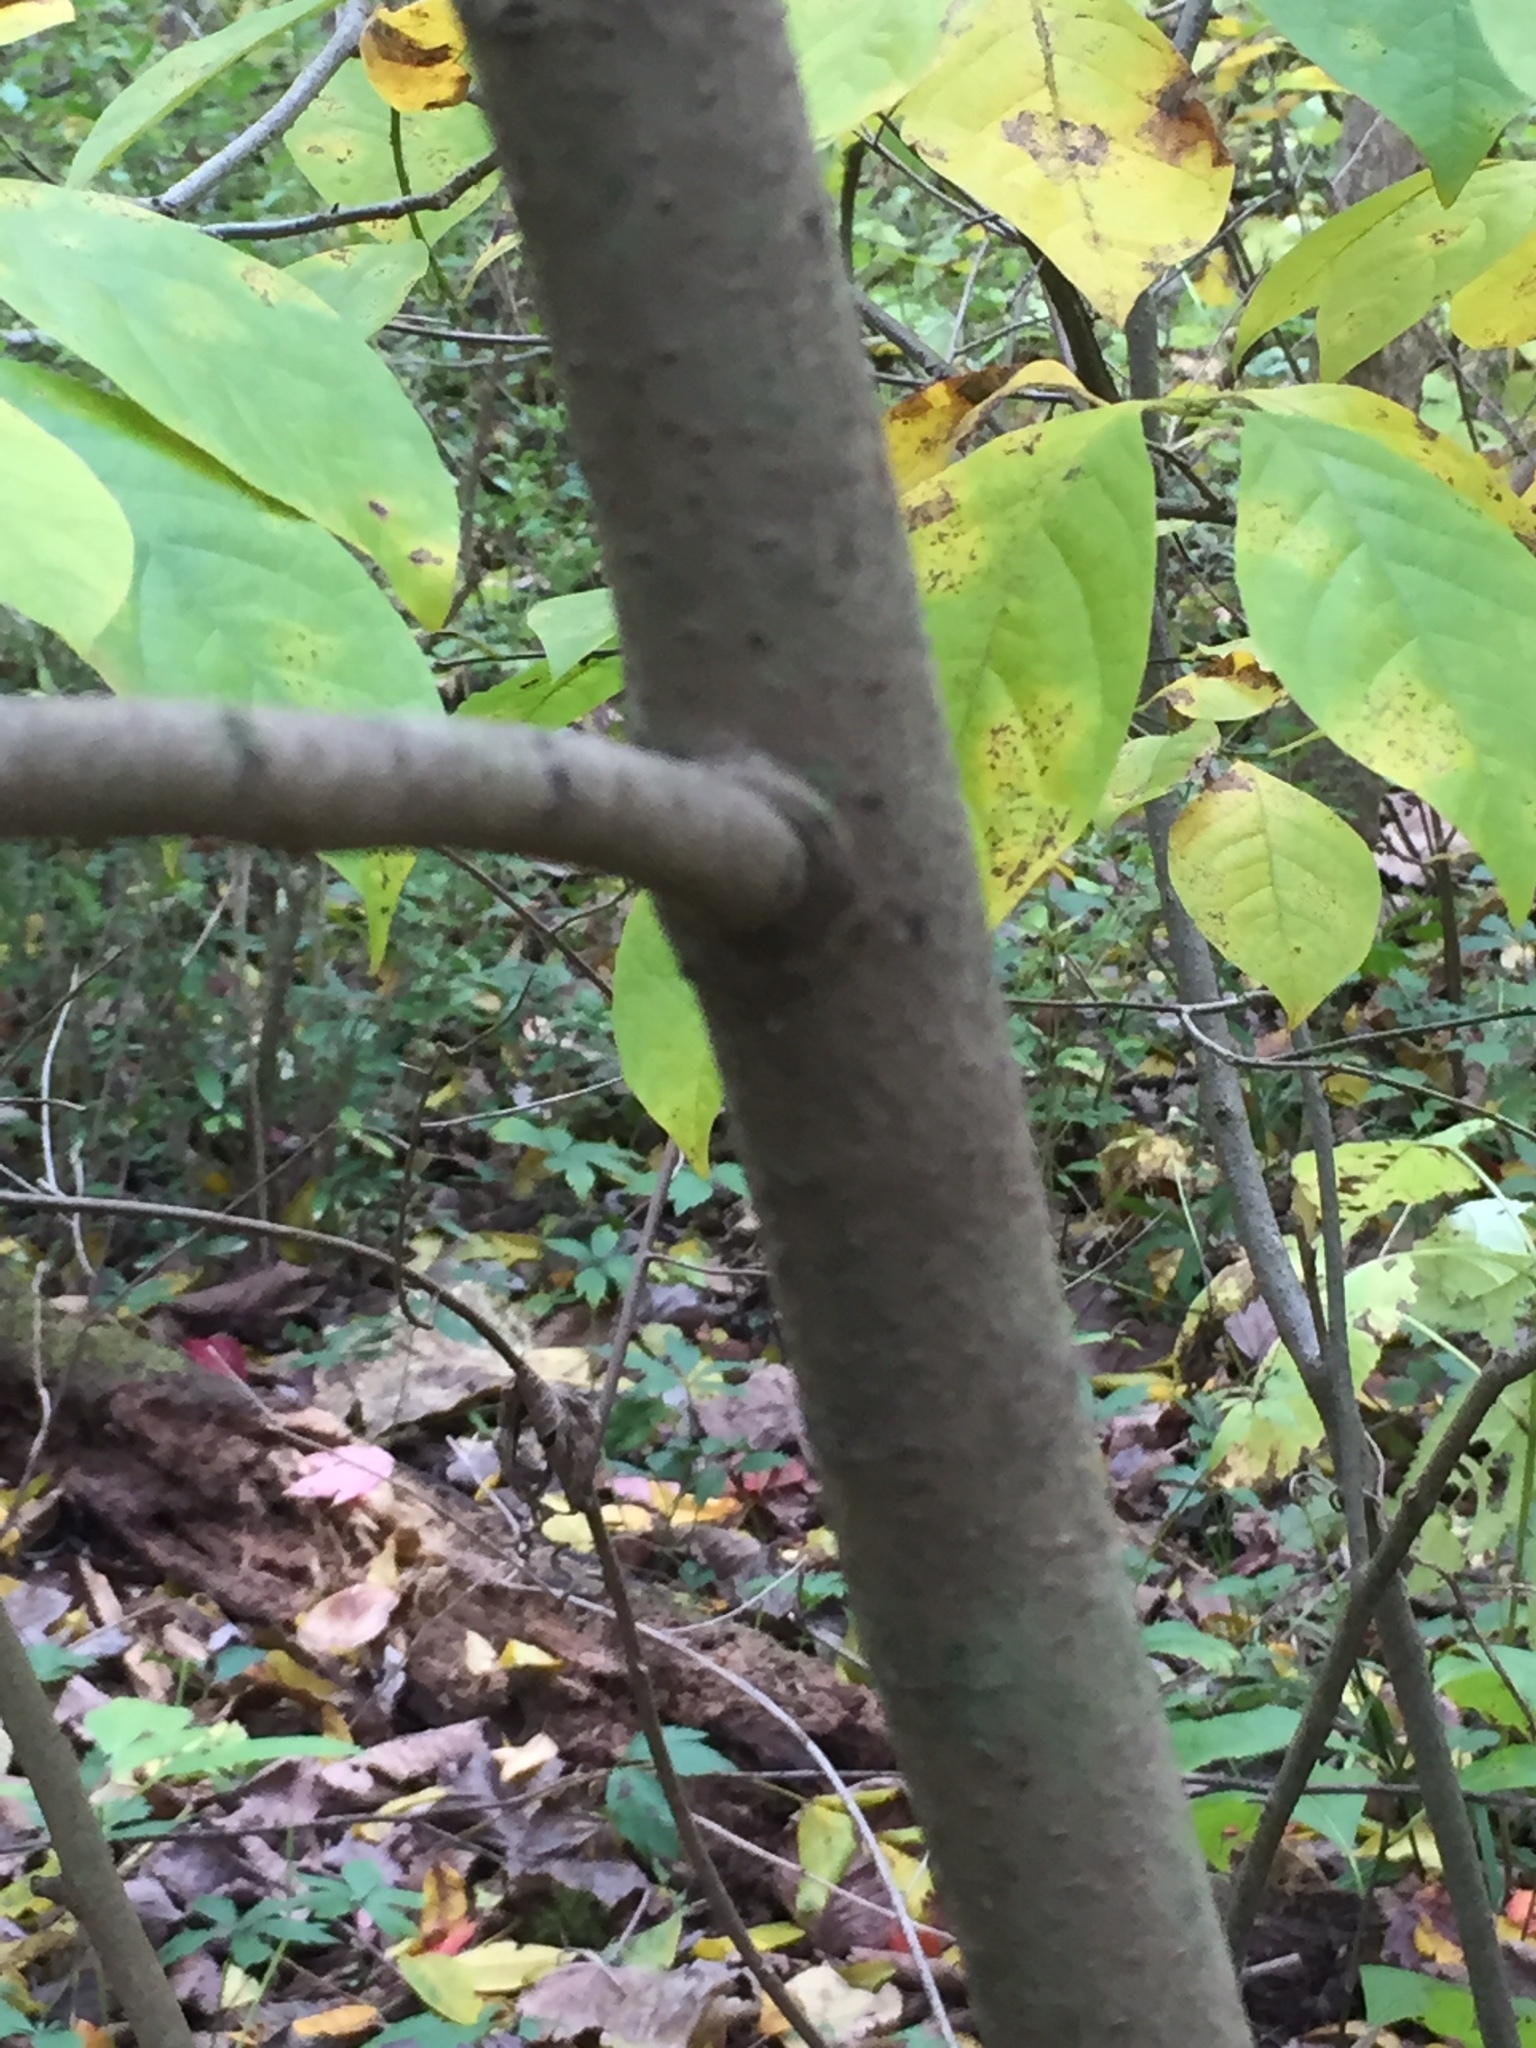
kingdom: Plantae
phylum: Tracheophyta
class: Magnoliopsida
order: Magnoliales
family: Annonaceae
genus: Asimina
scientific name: Asimina triloba
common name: Dog-banana
